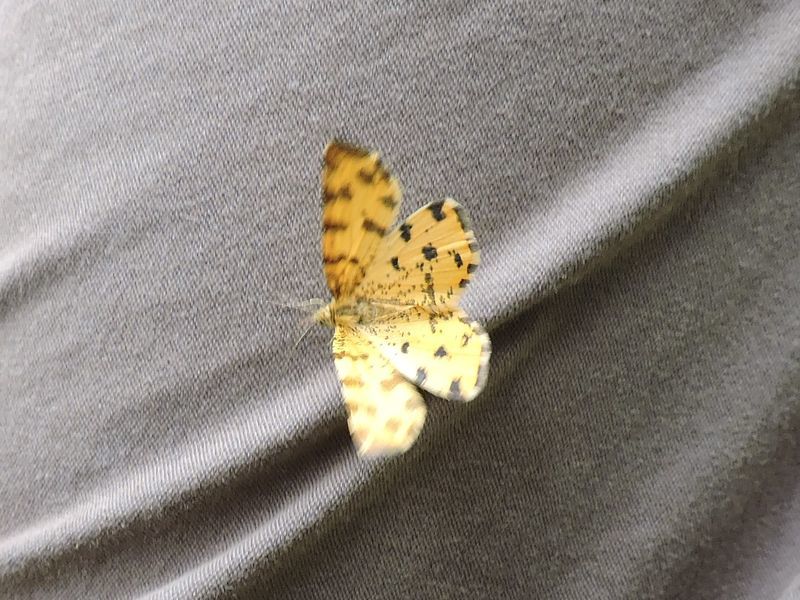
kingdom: Animalia
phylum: Arthropoda
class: Insecta
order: Lepidoptera
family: Geometridae
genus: Pseudopanthera
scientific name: Pseudopanthera macularia
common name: Speckled yellow
